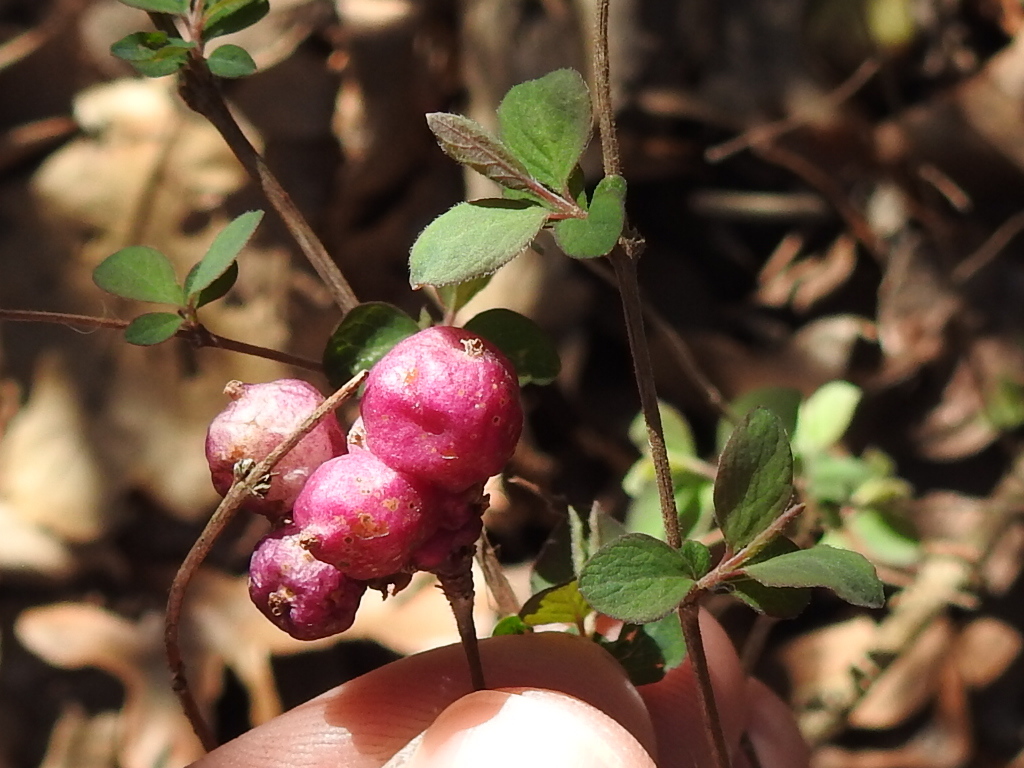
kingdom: Plantae
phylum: Tracheophyta
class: Magnoliopsida
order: Dipsacales
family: Caprifoliaceae
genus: Symphoricarpos
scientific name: Symphoricarpos orbiculatus
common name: Coralberry
